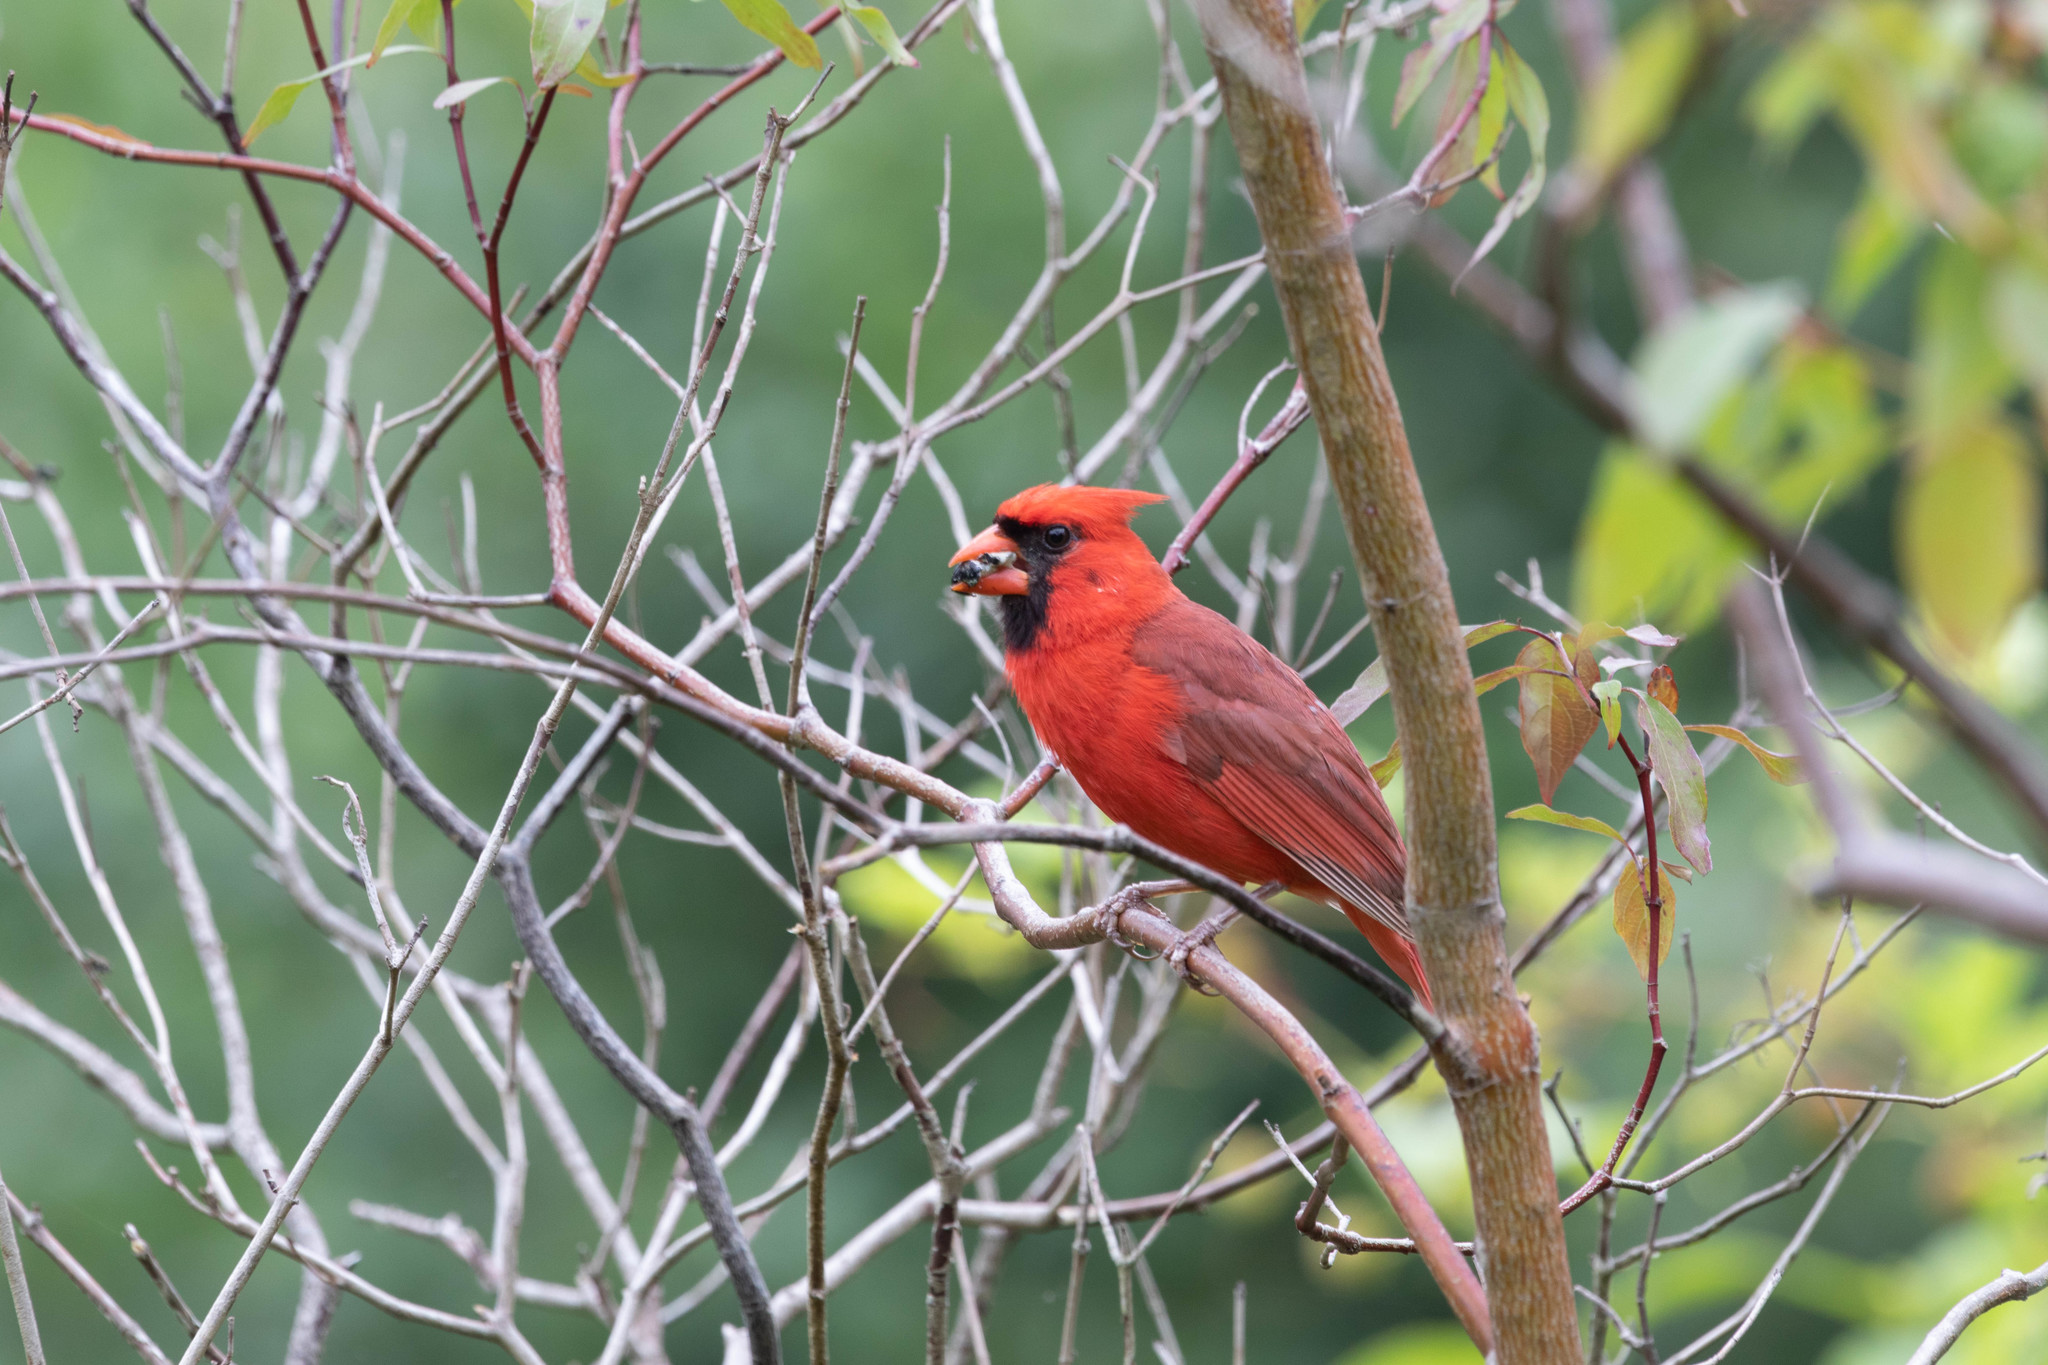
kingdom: Animalia
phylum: Chordata
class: Aves
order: Passeriformes
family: Cardinalidae
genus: Cardinalis
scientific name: Cardinalis cardinalis
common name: Northern cardinal
